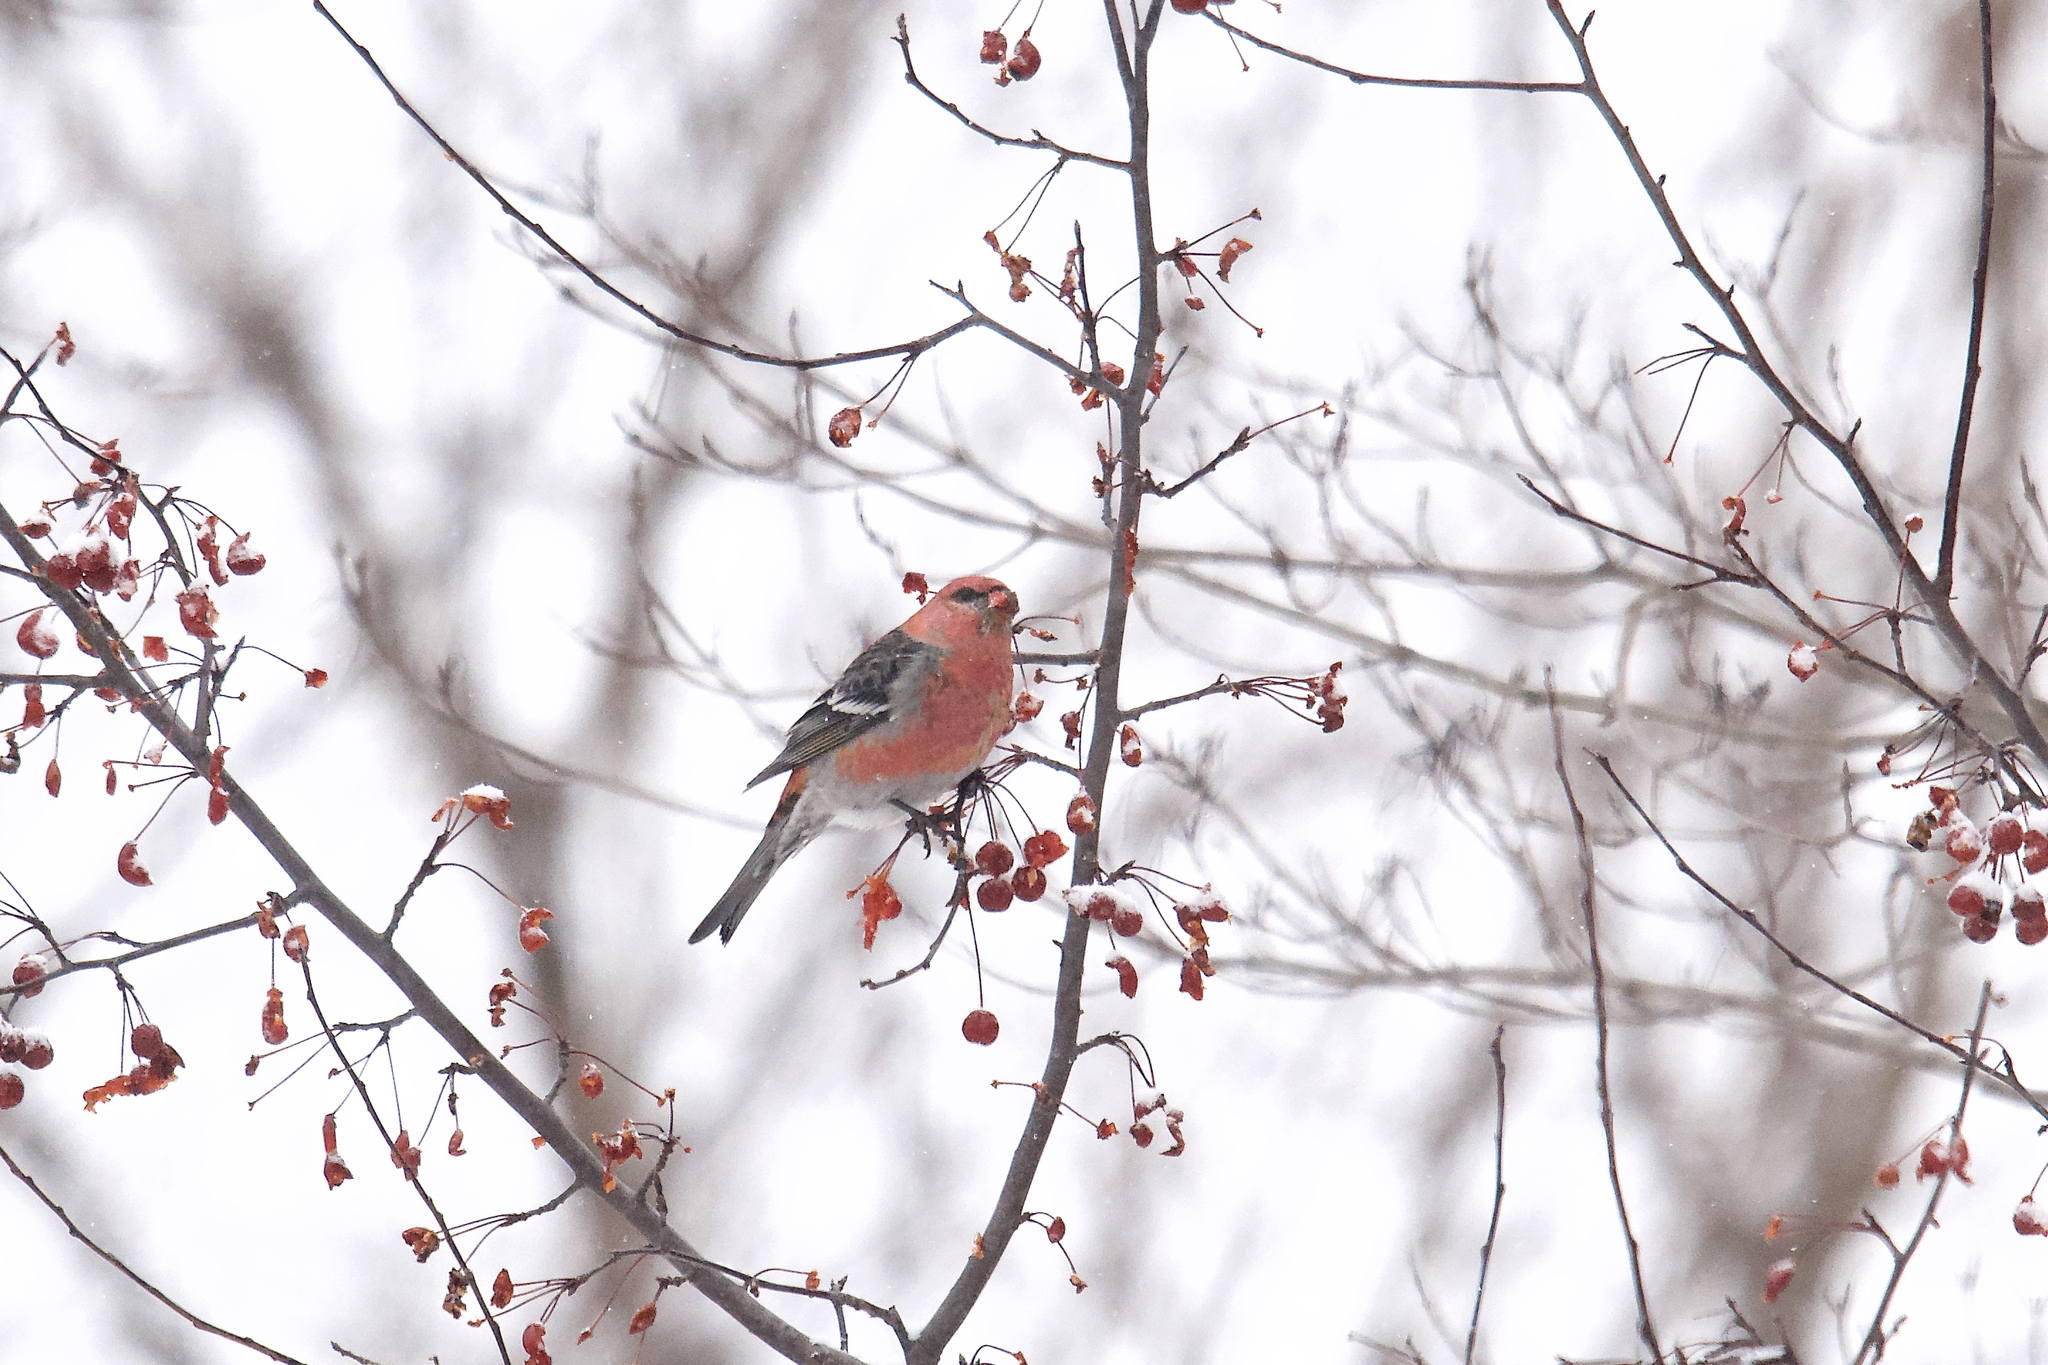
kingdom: Animalia
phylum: Chordata
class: Aves
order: Passeriformes
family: Fringillidae
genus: Pinicola
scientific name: Pinicola enucleator
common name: Pine grosbeak
